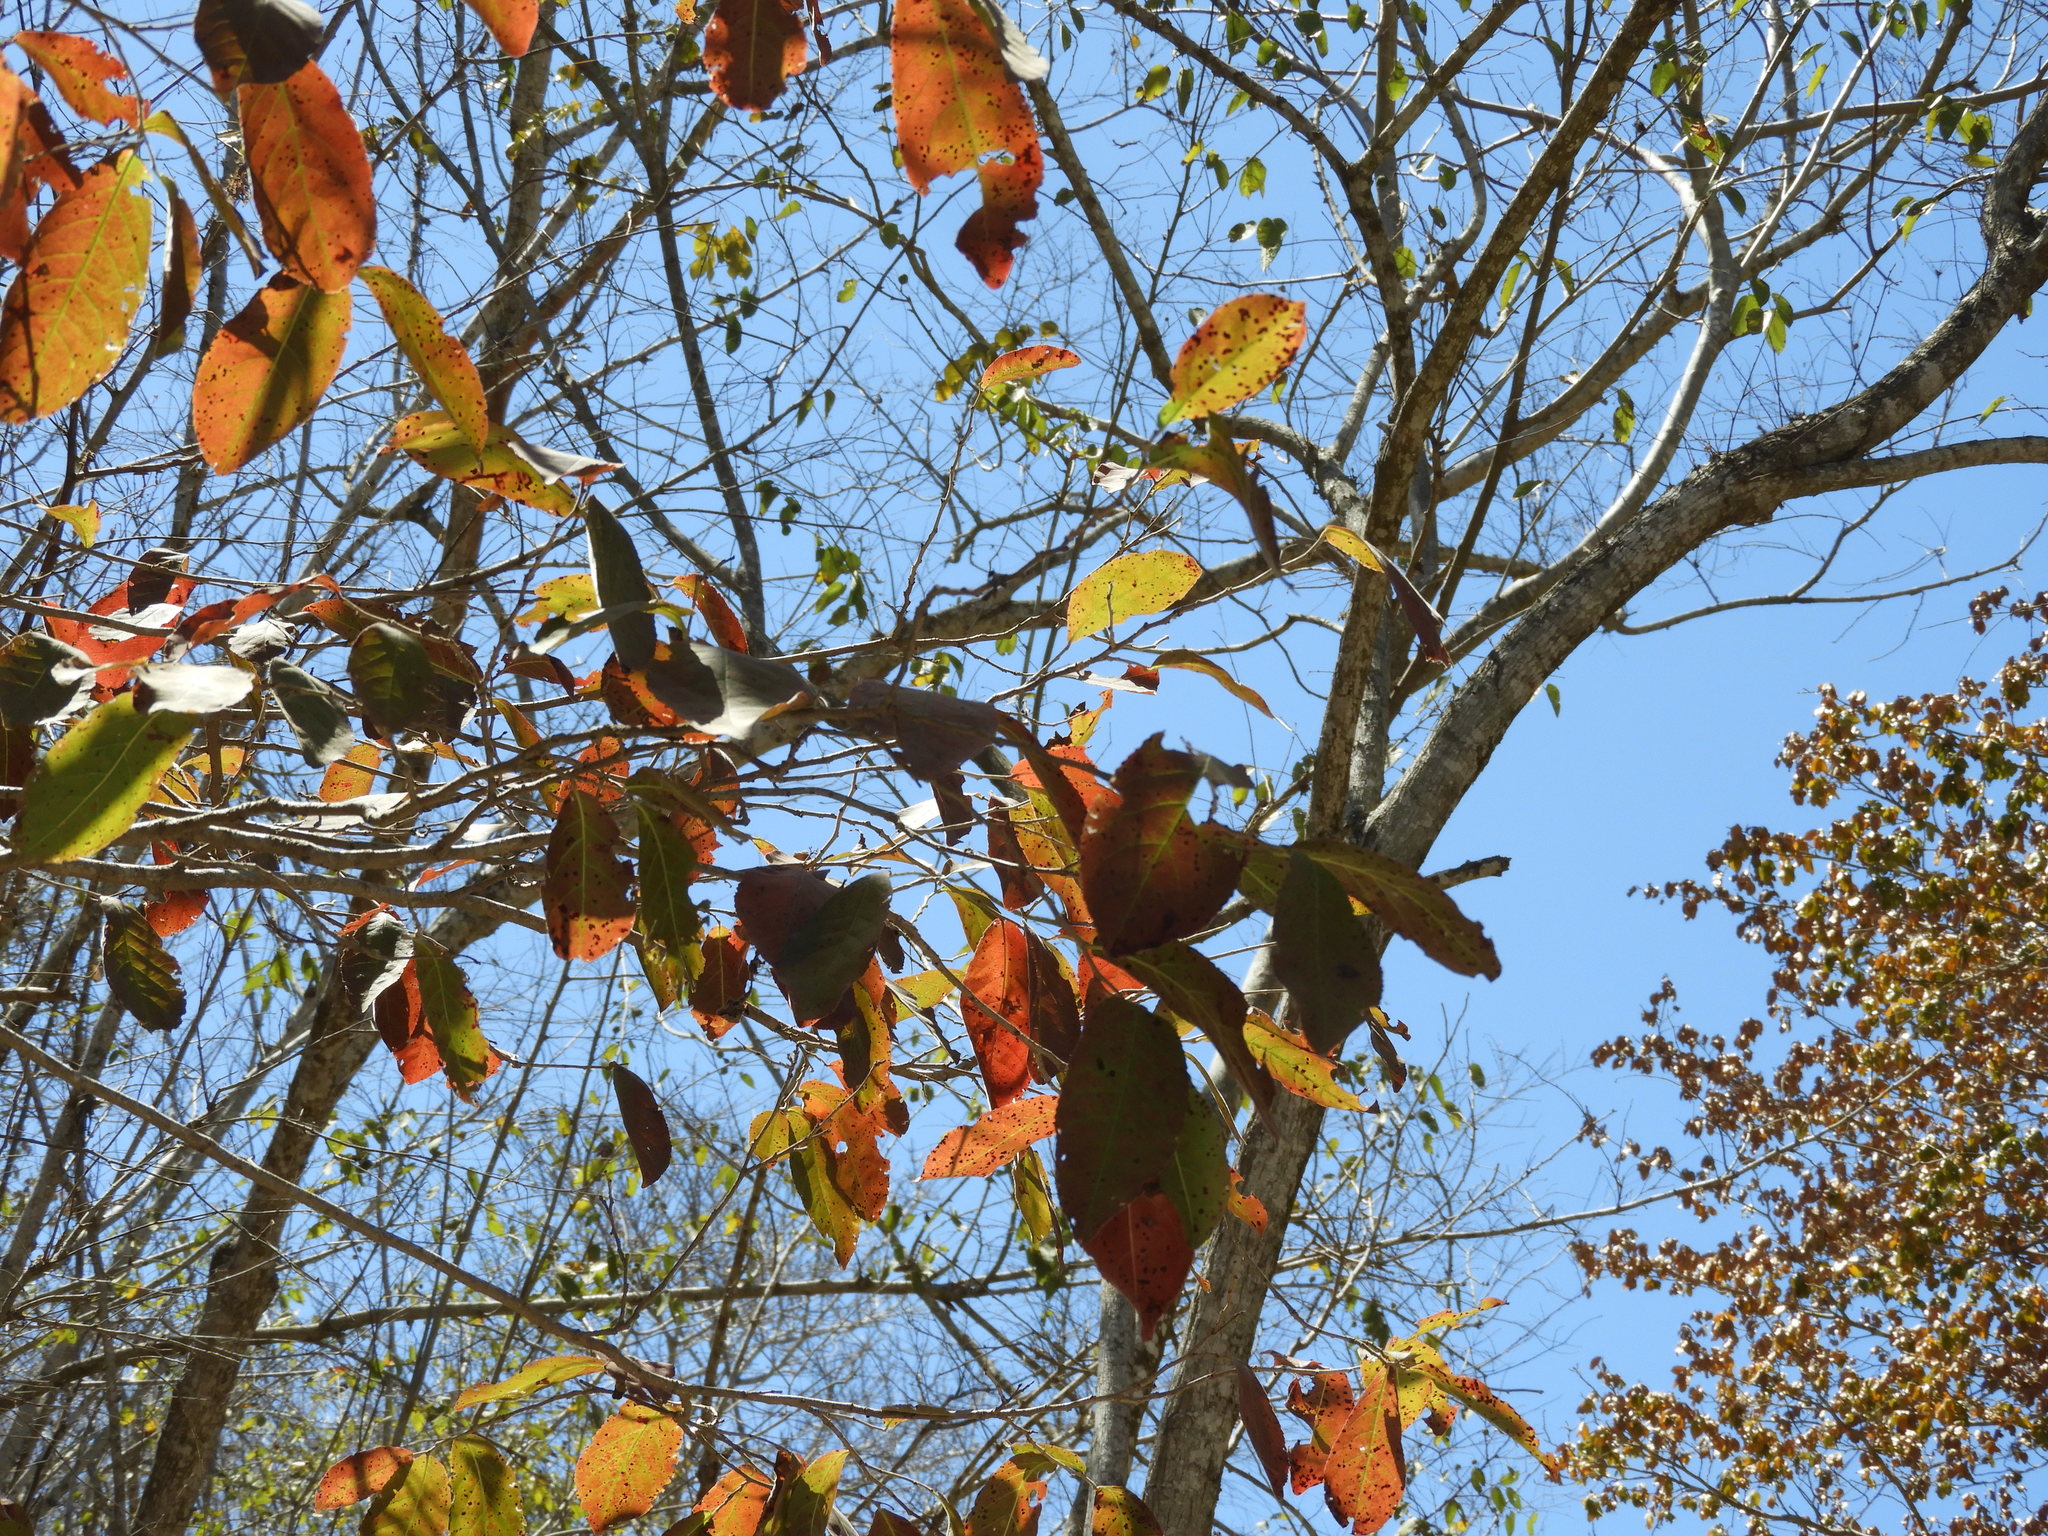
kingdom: Plantae
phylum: Tracheophyta
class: Magnoliopsida
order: Malpighiales
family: Salicaceae
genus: Casearia
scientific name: Casearia corymbosa
